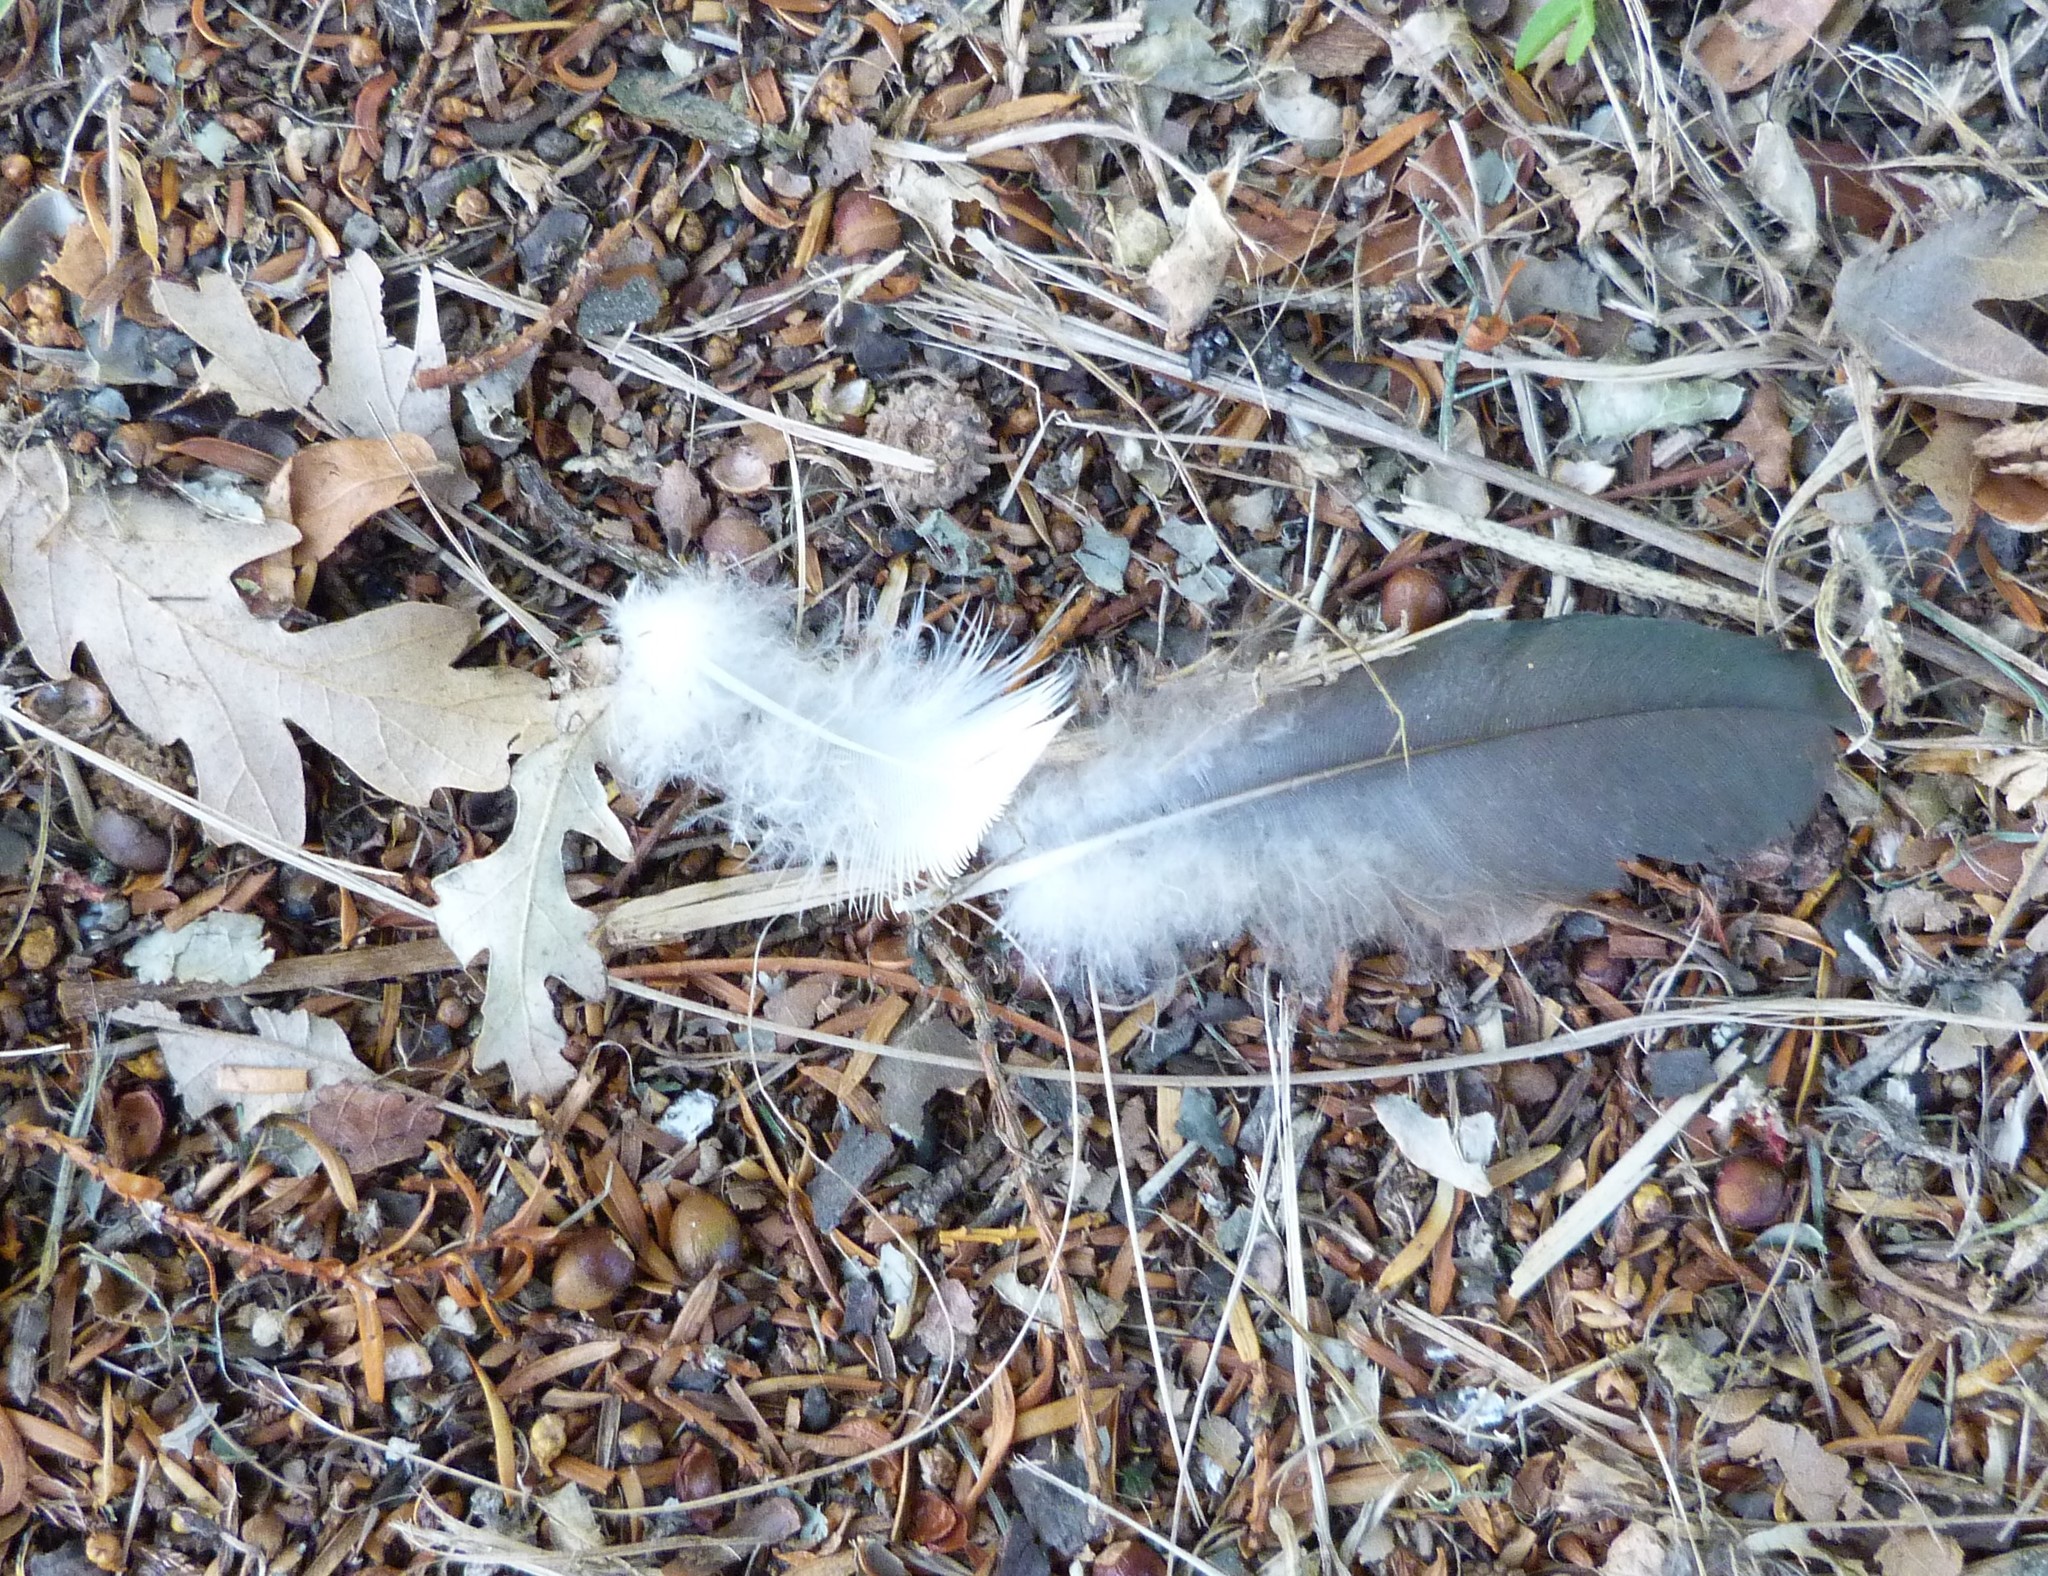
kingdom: Animalia
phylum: Chordata
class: Aves
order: Columbiformes
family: Columbidae
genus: Hemiphaga
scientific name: Hemiphaga novaeseelandiae
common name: New zealand pigeon
